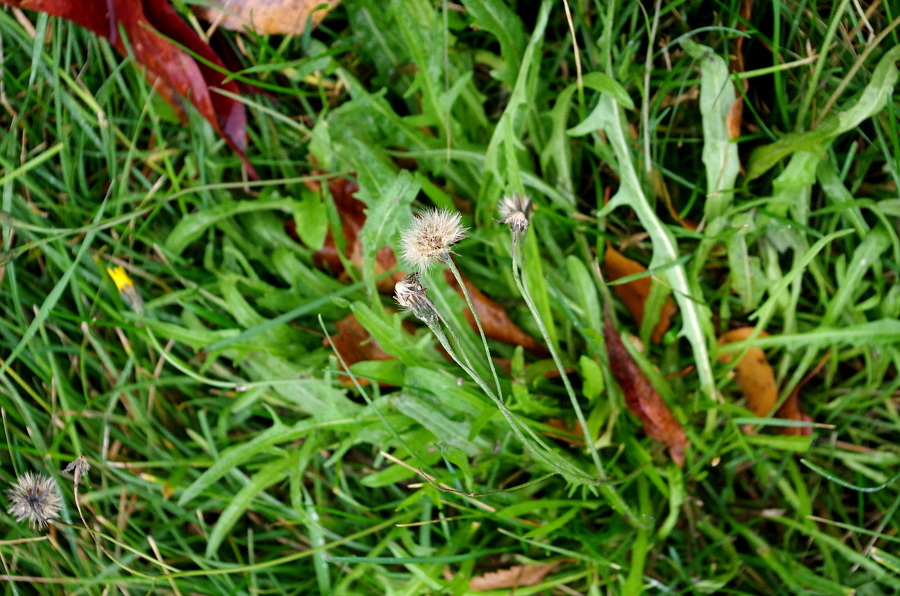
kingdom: Plantae
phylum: Tracheophyta
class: Magnoliopsida
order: Asterales
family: Asteraceae
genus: Scorzoneroides
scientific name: Scorzoneroides autumnalis
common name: Autumn hawkbit
